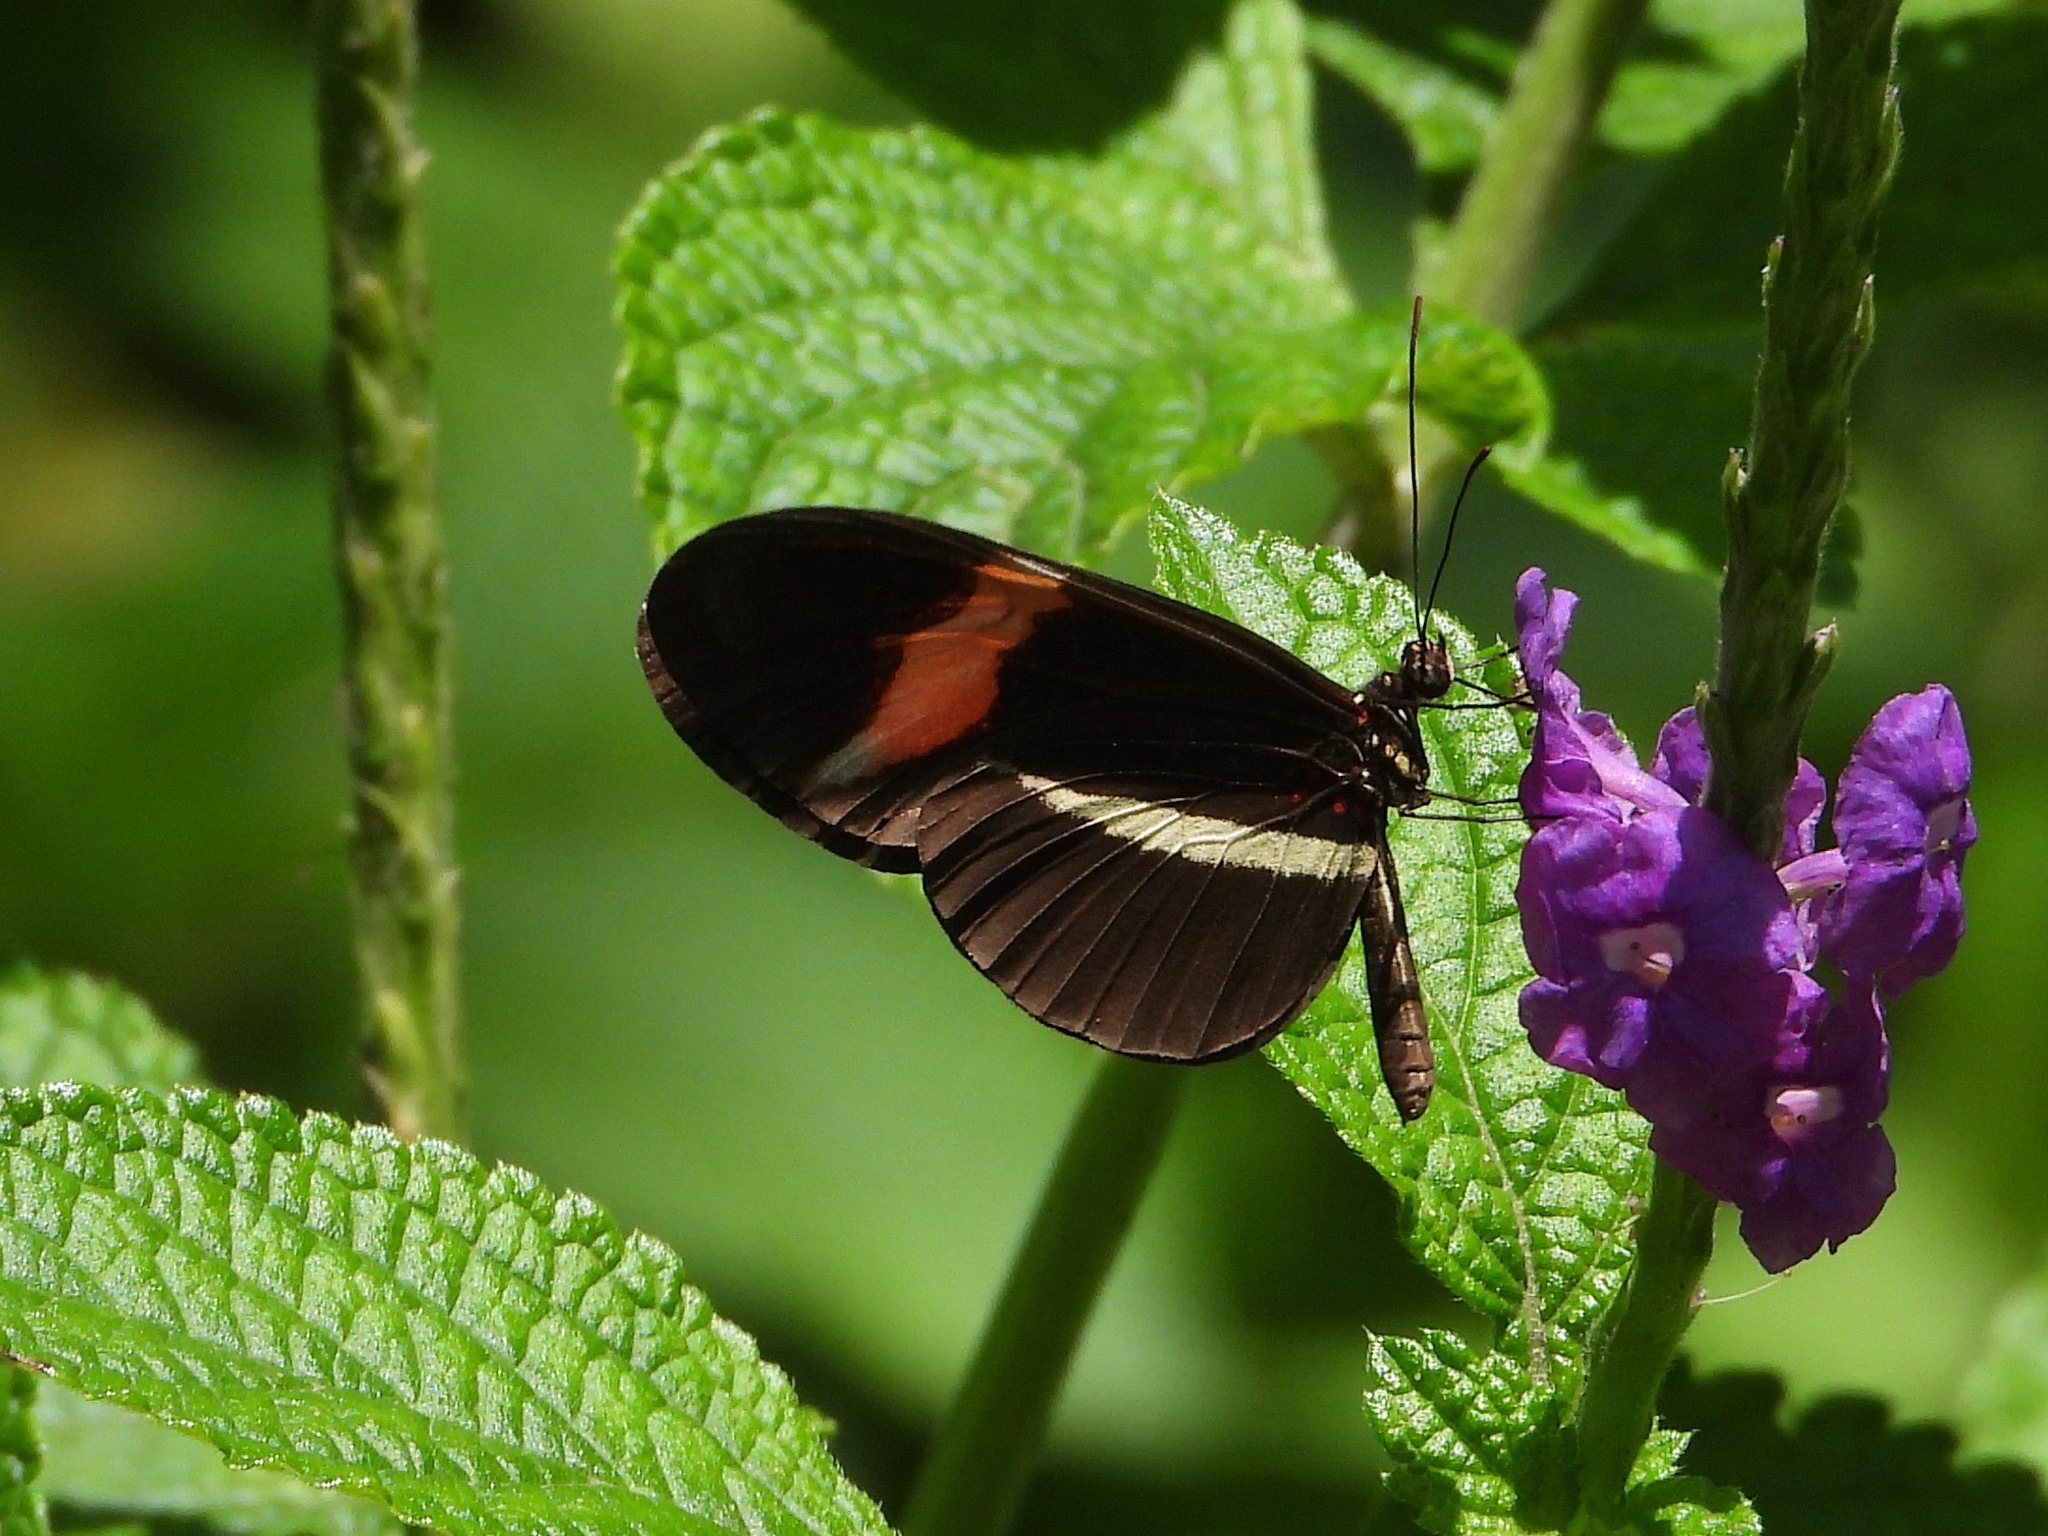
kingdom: Animalia
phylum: Arthropoda
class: Insecta
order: Lepidoptera
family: Nymphalidae
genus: Tirumala
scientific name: Tirumala petiverana
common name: Blue monarch
